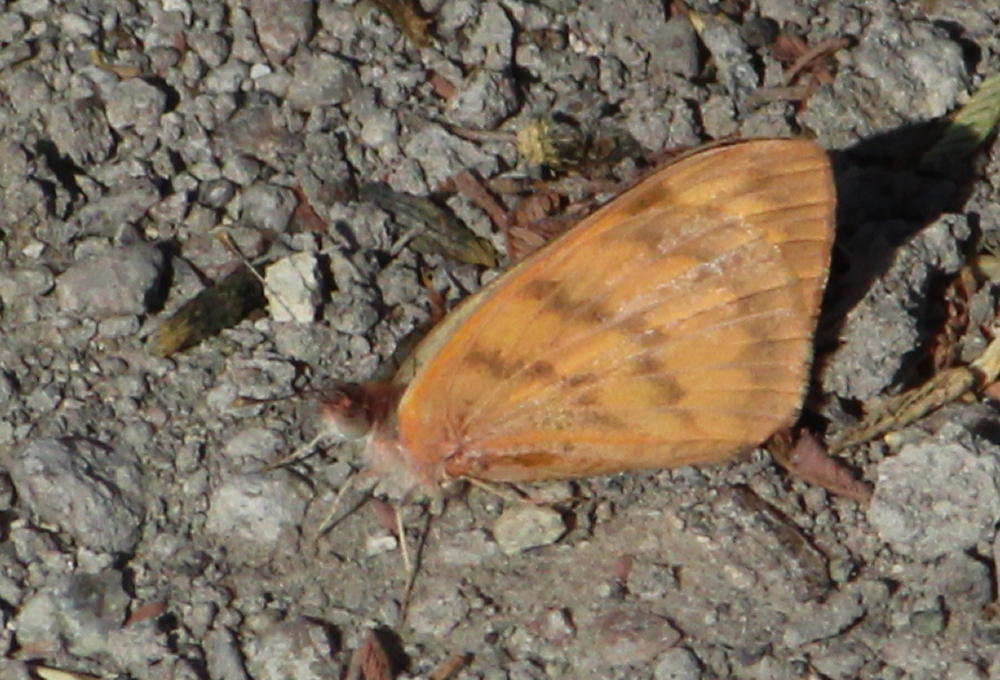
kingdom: Animalia
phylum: Arthropoda
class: Insecta
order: Lepidoptera
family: Pieridae
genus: Colotis
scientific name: Colotis vesta
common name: Veined golden arab
